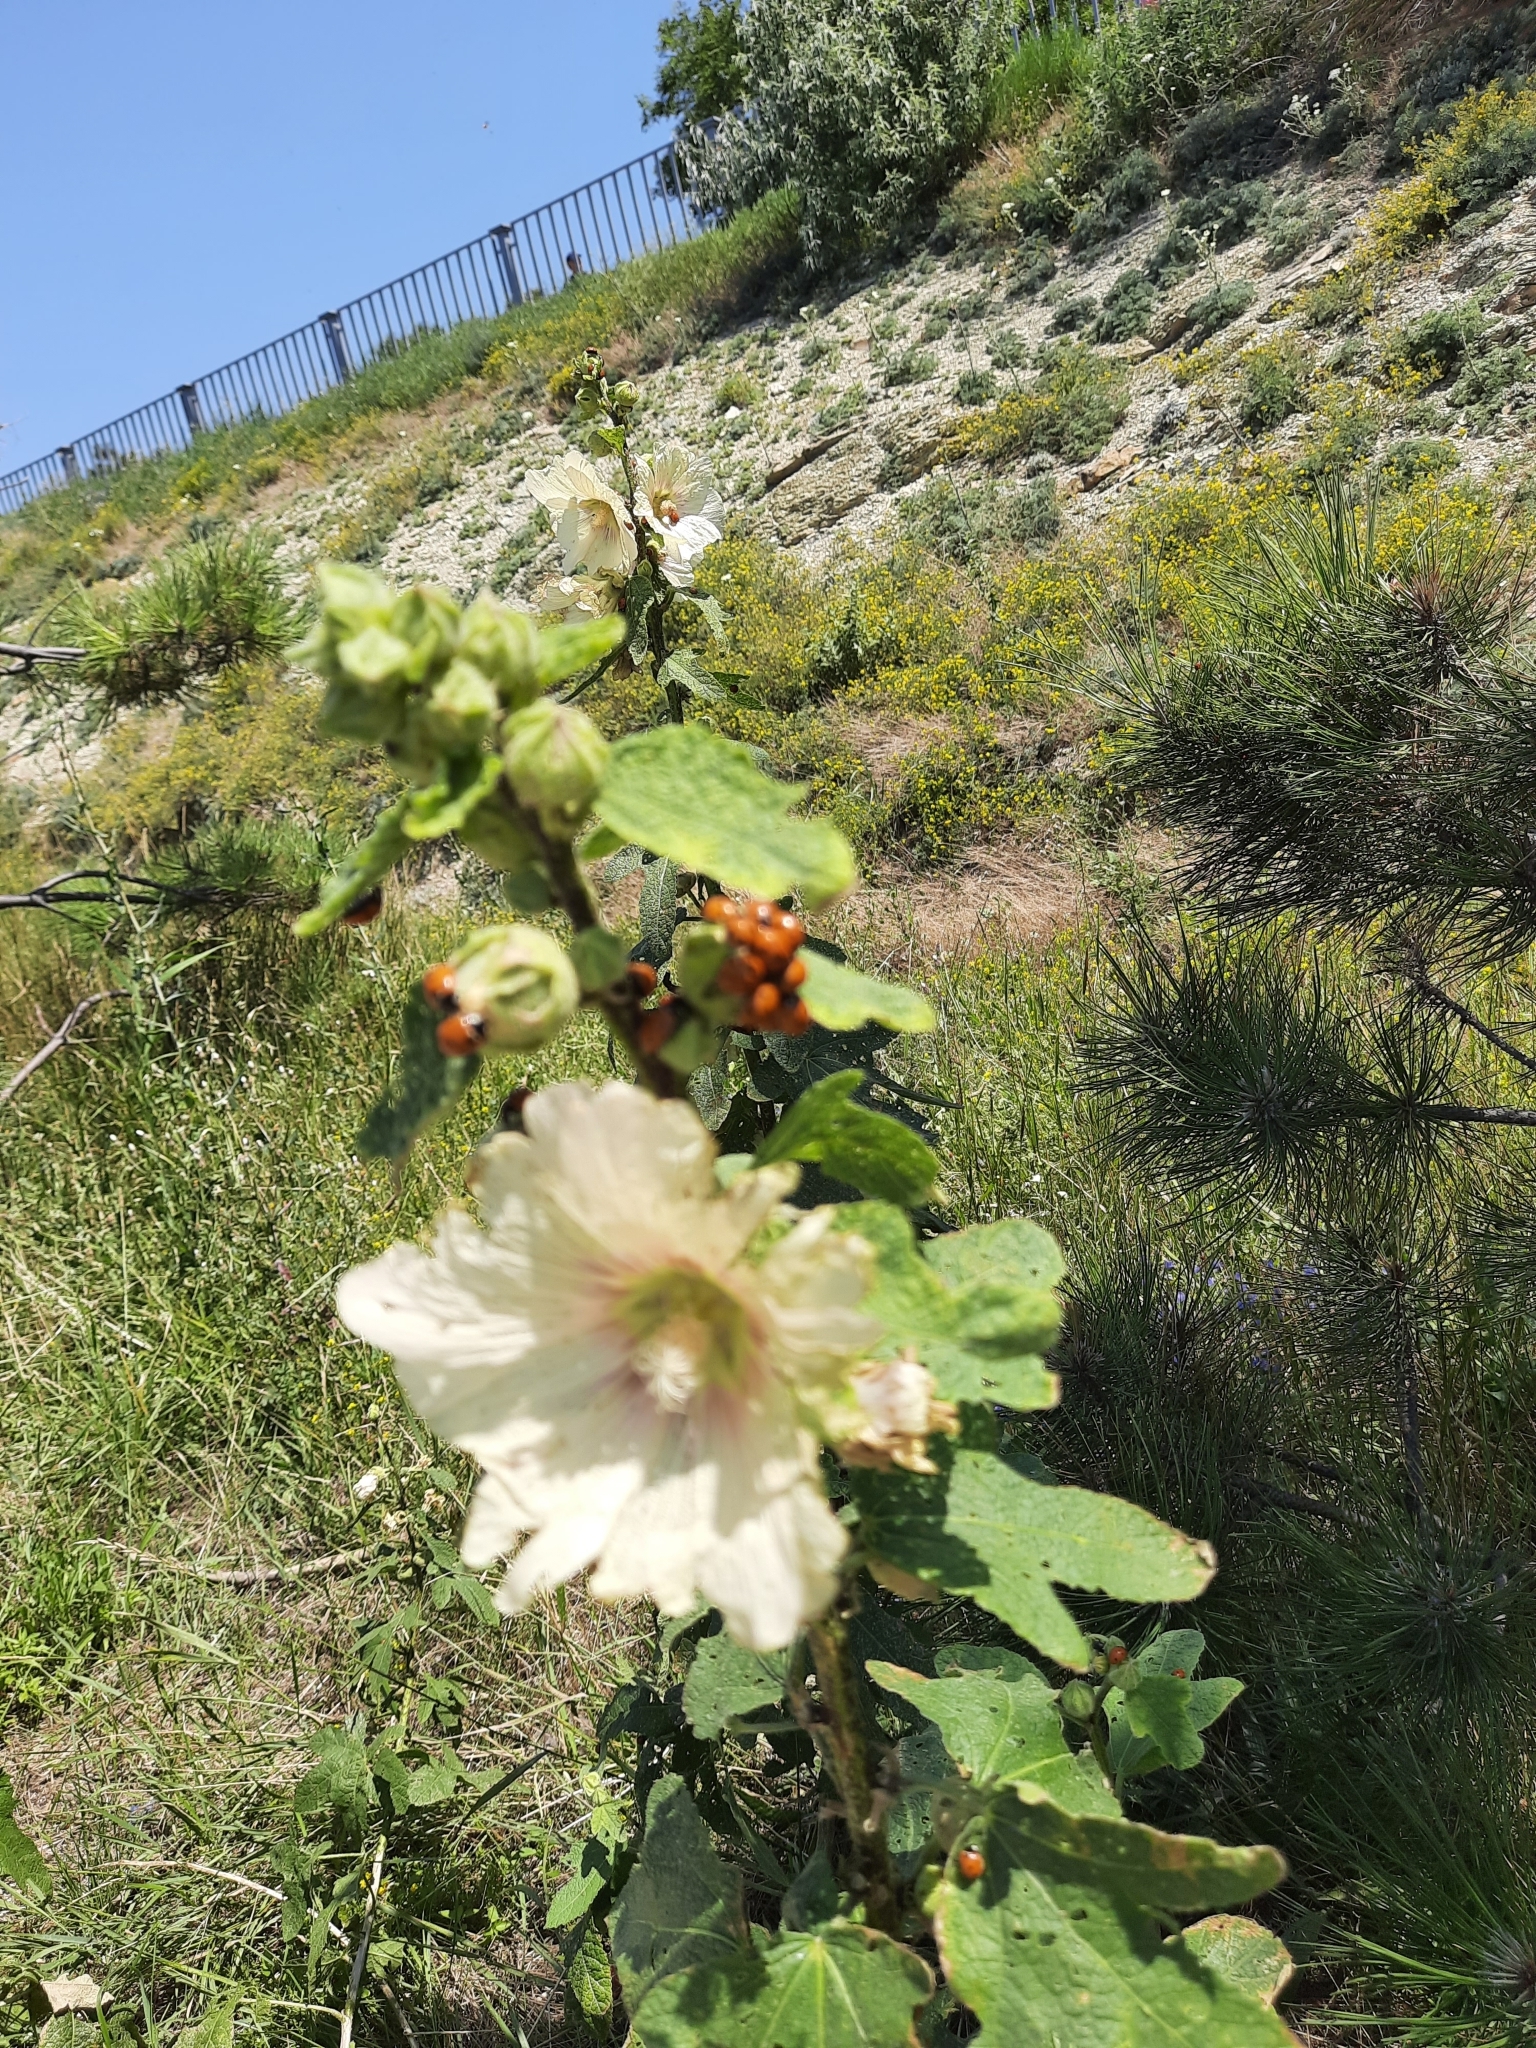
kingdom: Plantae
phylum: Tracheophyta
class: Magnoliopsida
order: Malvales
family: Malvaceae
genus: Alcea
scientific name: Alcea rugosa
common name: Russian hollyhock
